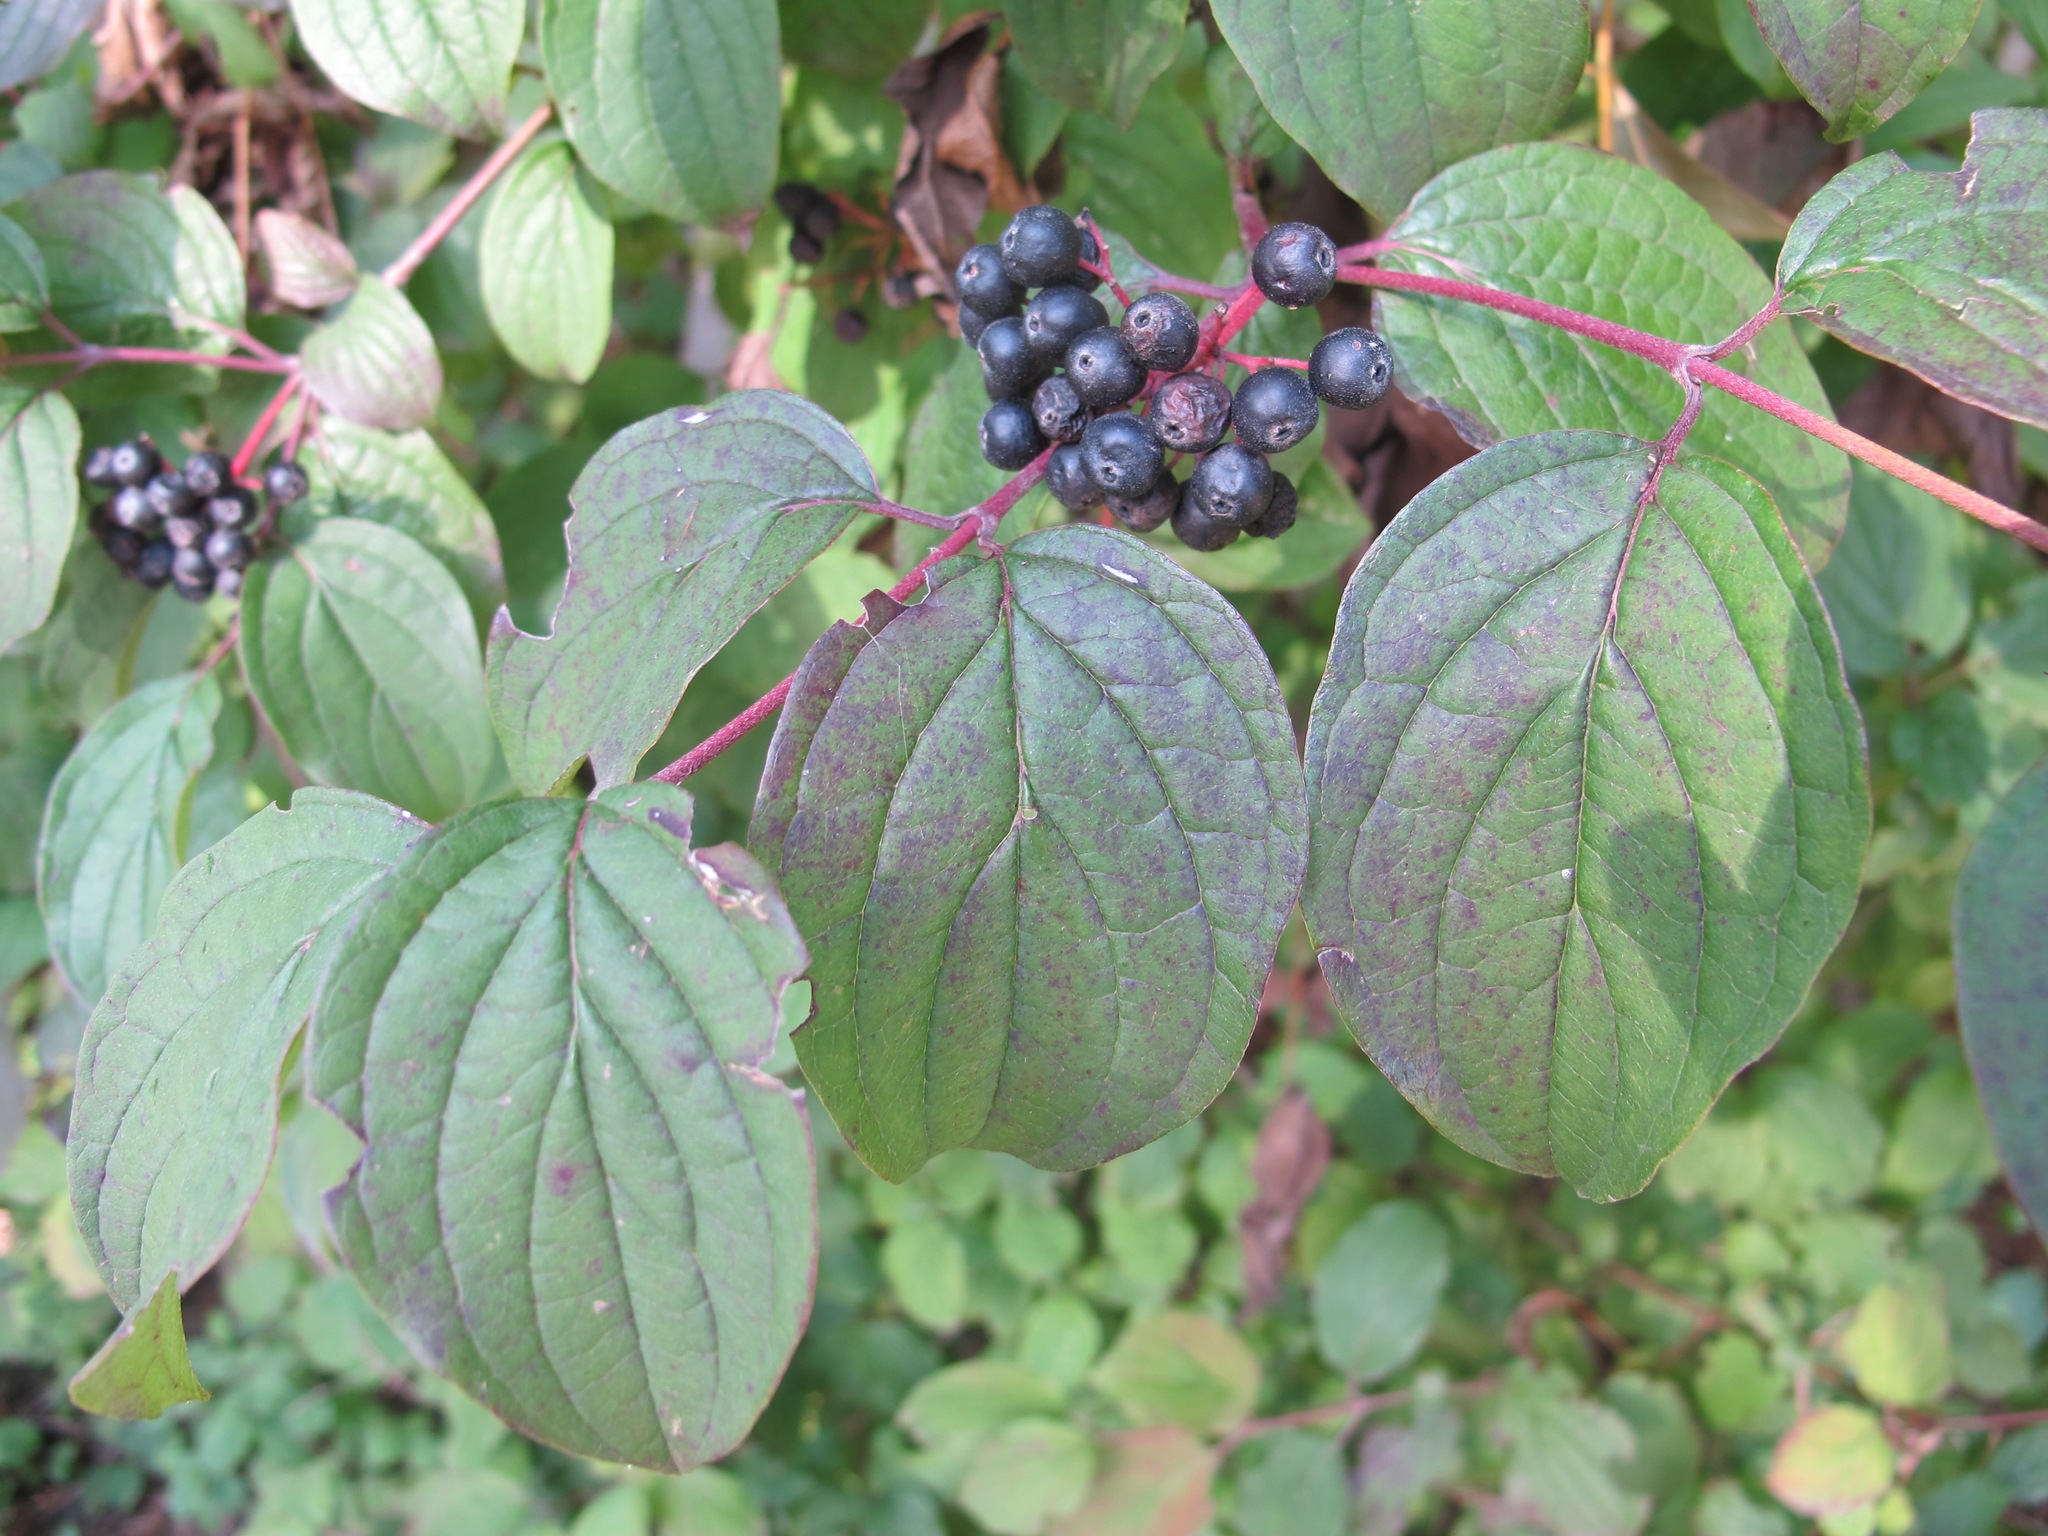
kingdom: Plantae
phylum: Tracheophyta
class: Magnoliopsida
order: Cornales
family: Cornaceae
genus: Cornus
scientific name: Cornus sanguinea
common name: Dogwood
